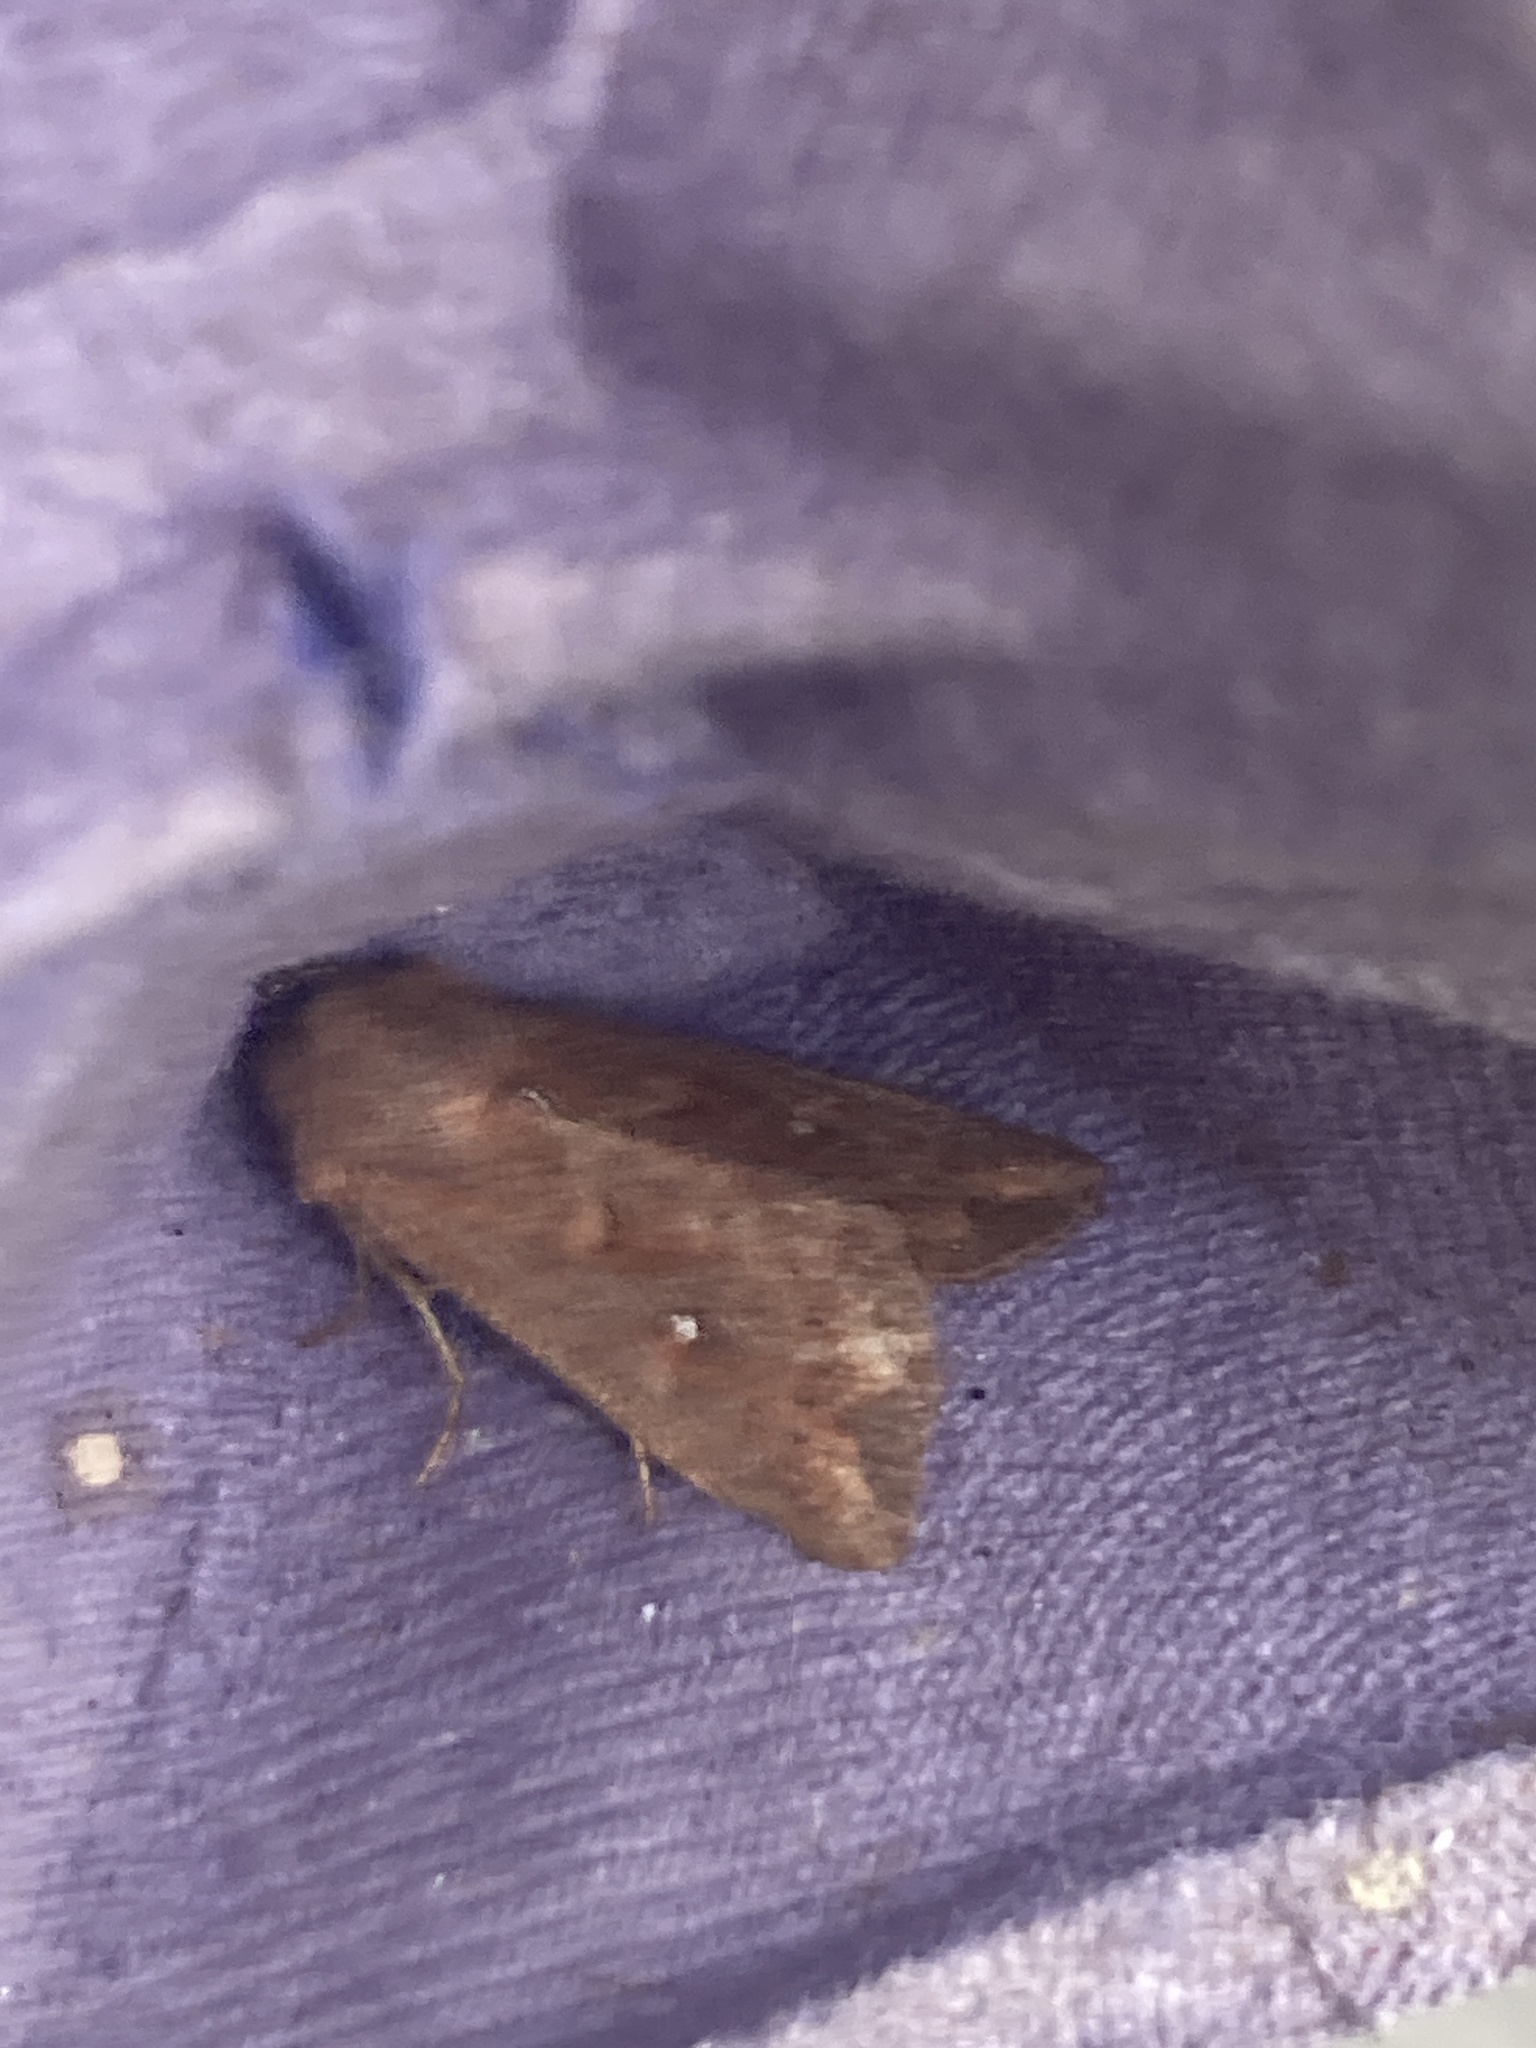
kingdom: Animalia
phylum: Arthropoda
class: Insecta
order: Lepidoptera
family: Noctuidae
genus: Mythimna
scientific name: Mythimna albipuncta
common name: White-point
